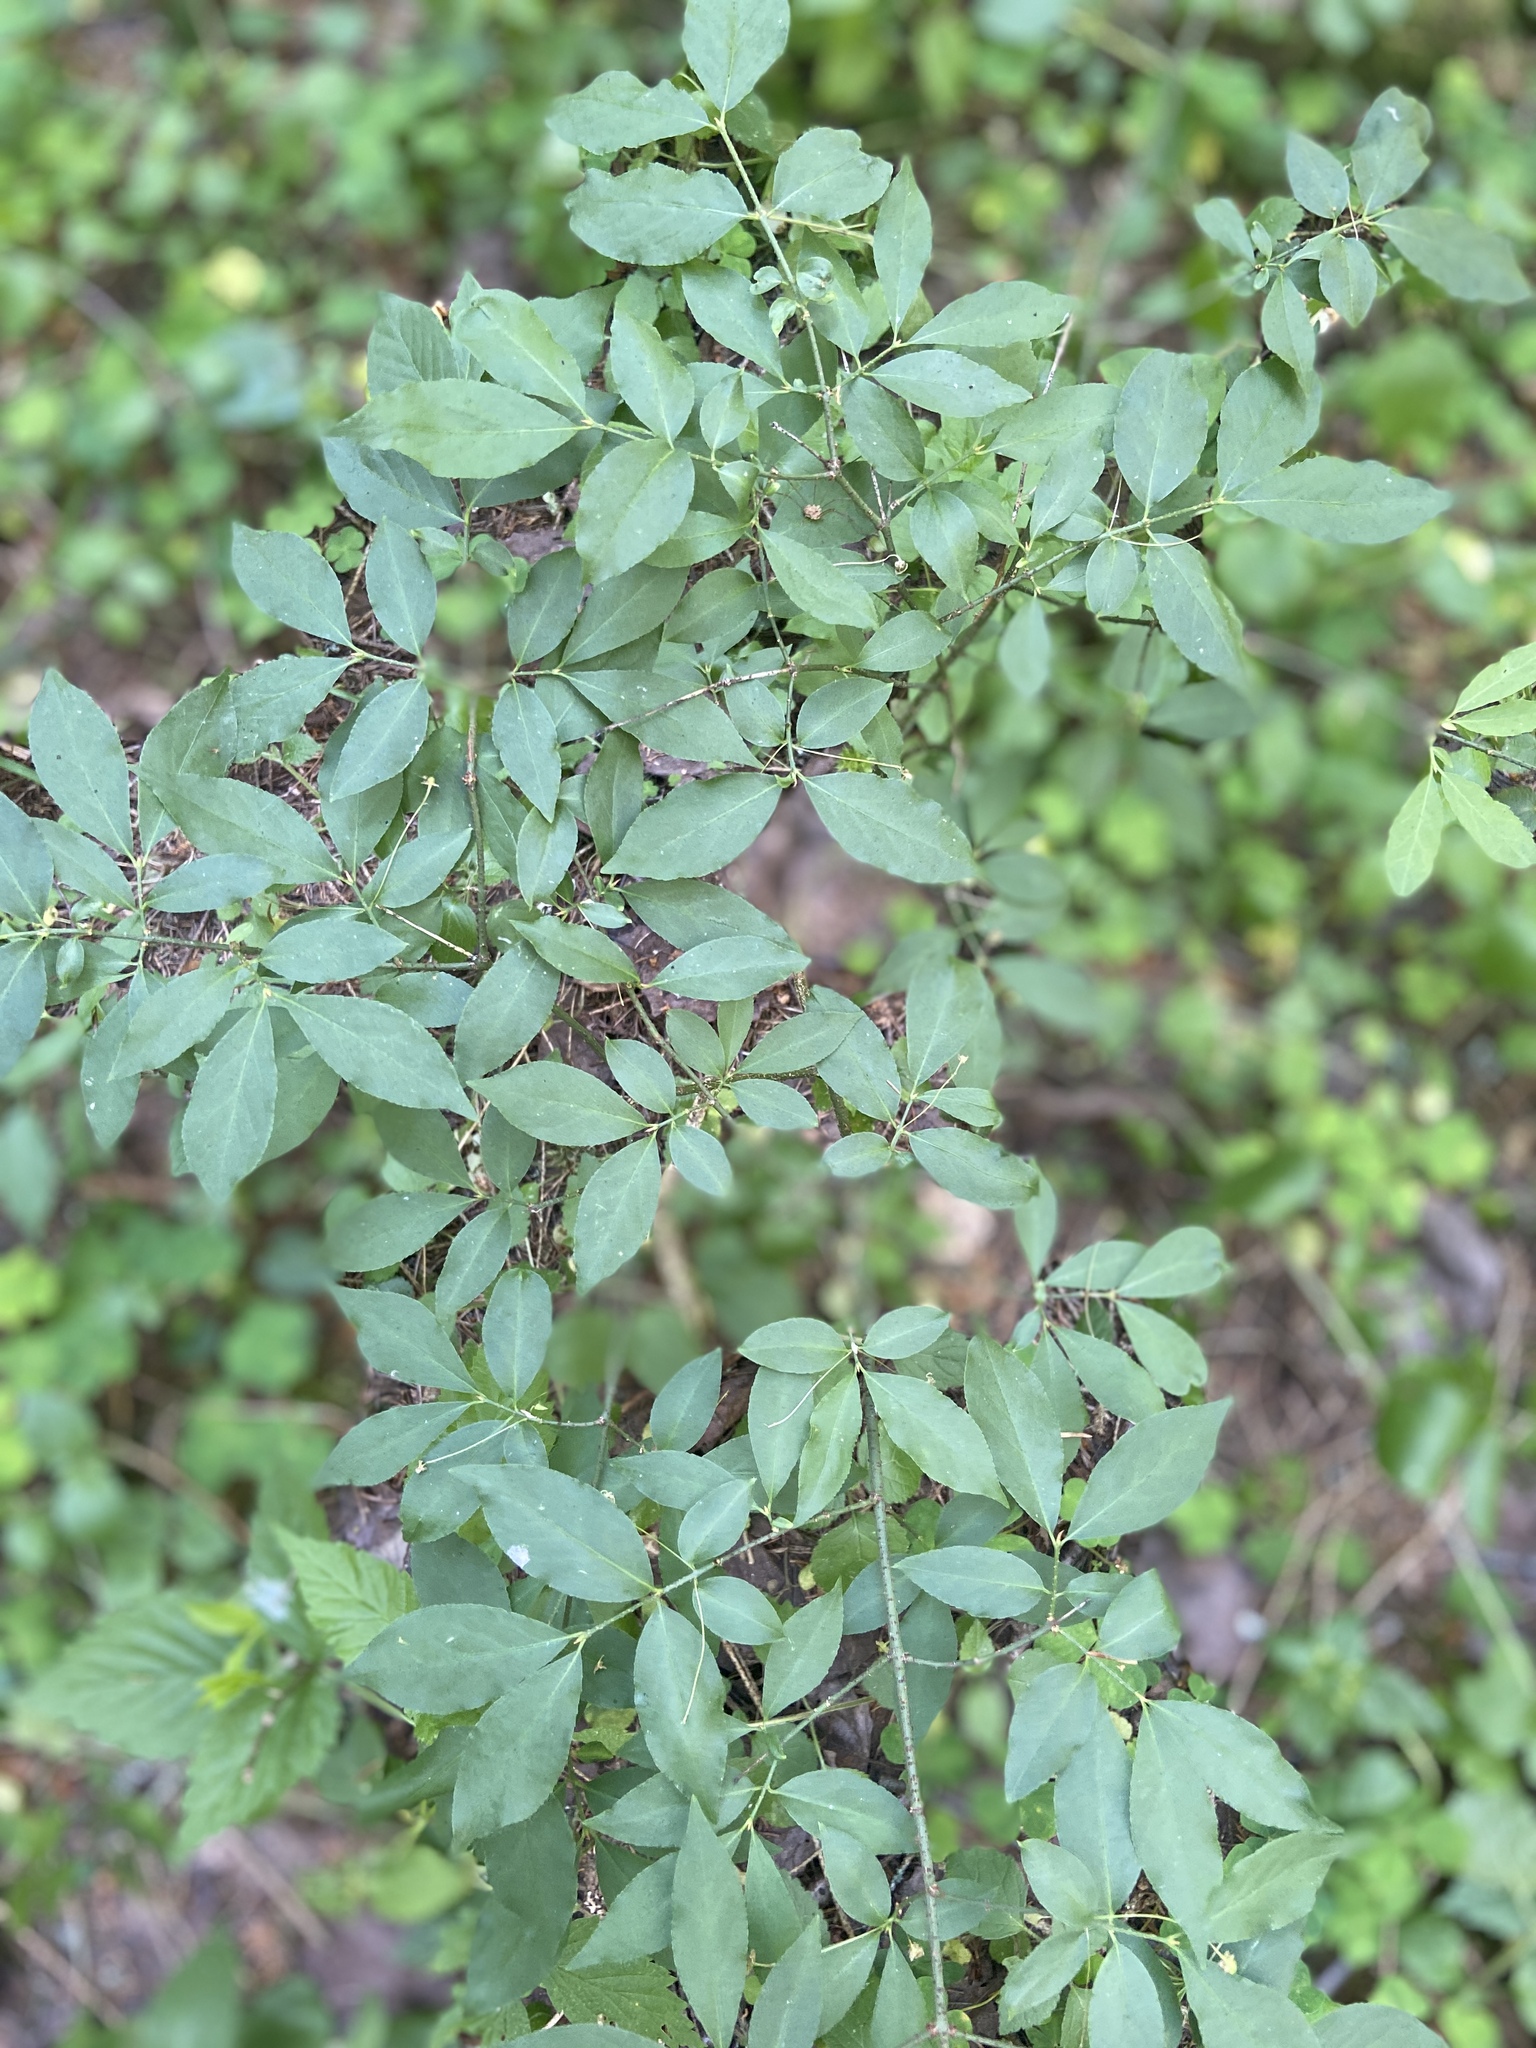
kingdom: Plantae
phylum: Tracheophyta
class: Magnoliopsida
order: Celastrales
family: Celastraceae
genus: Euonymus
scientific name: Euonymus verrucosus
